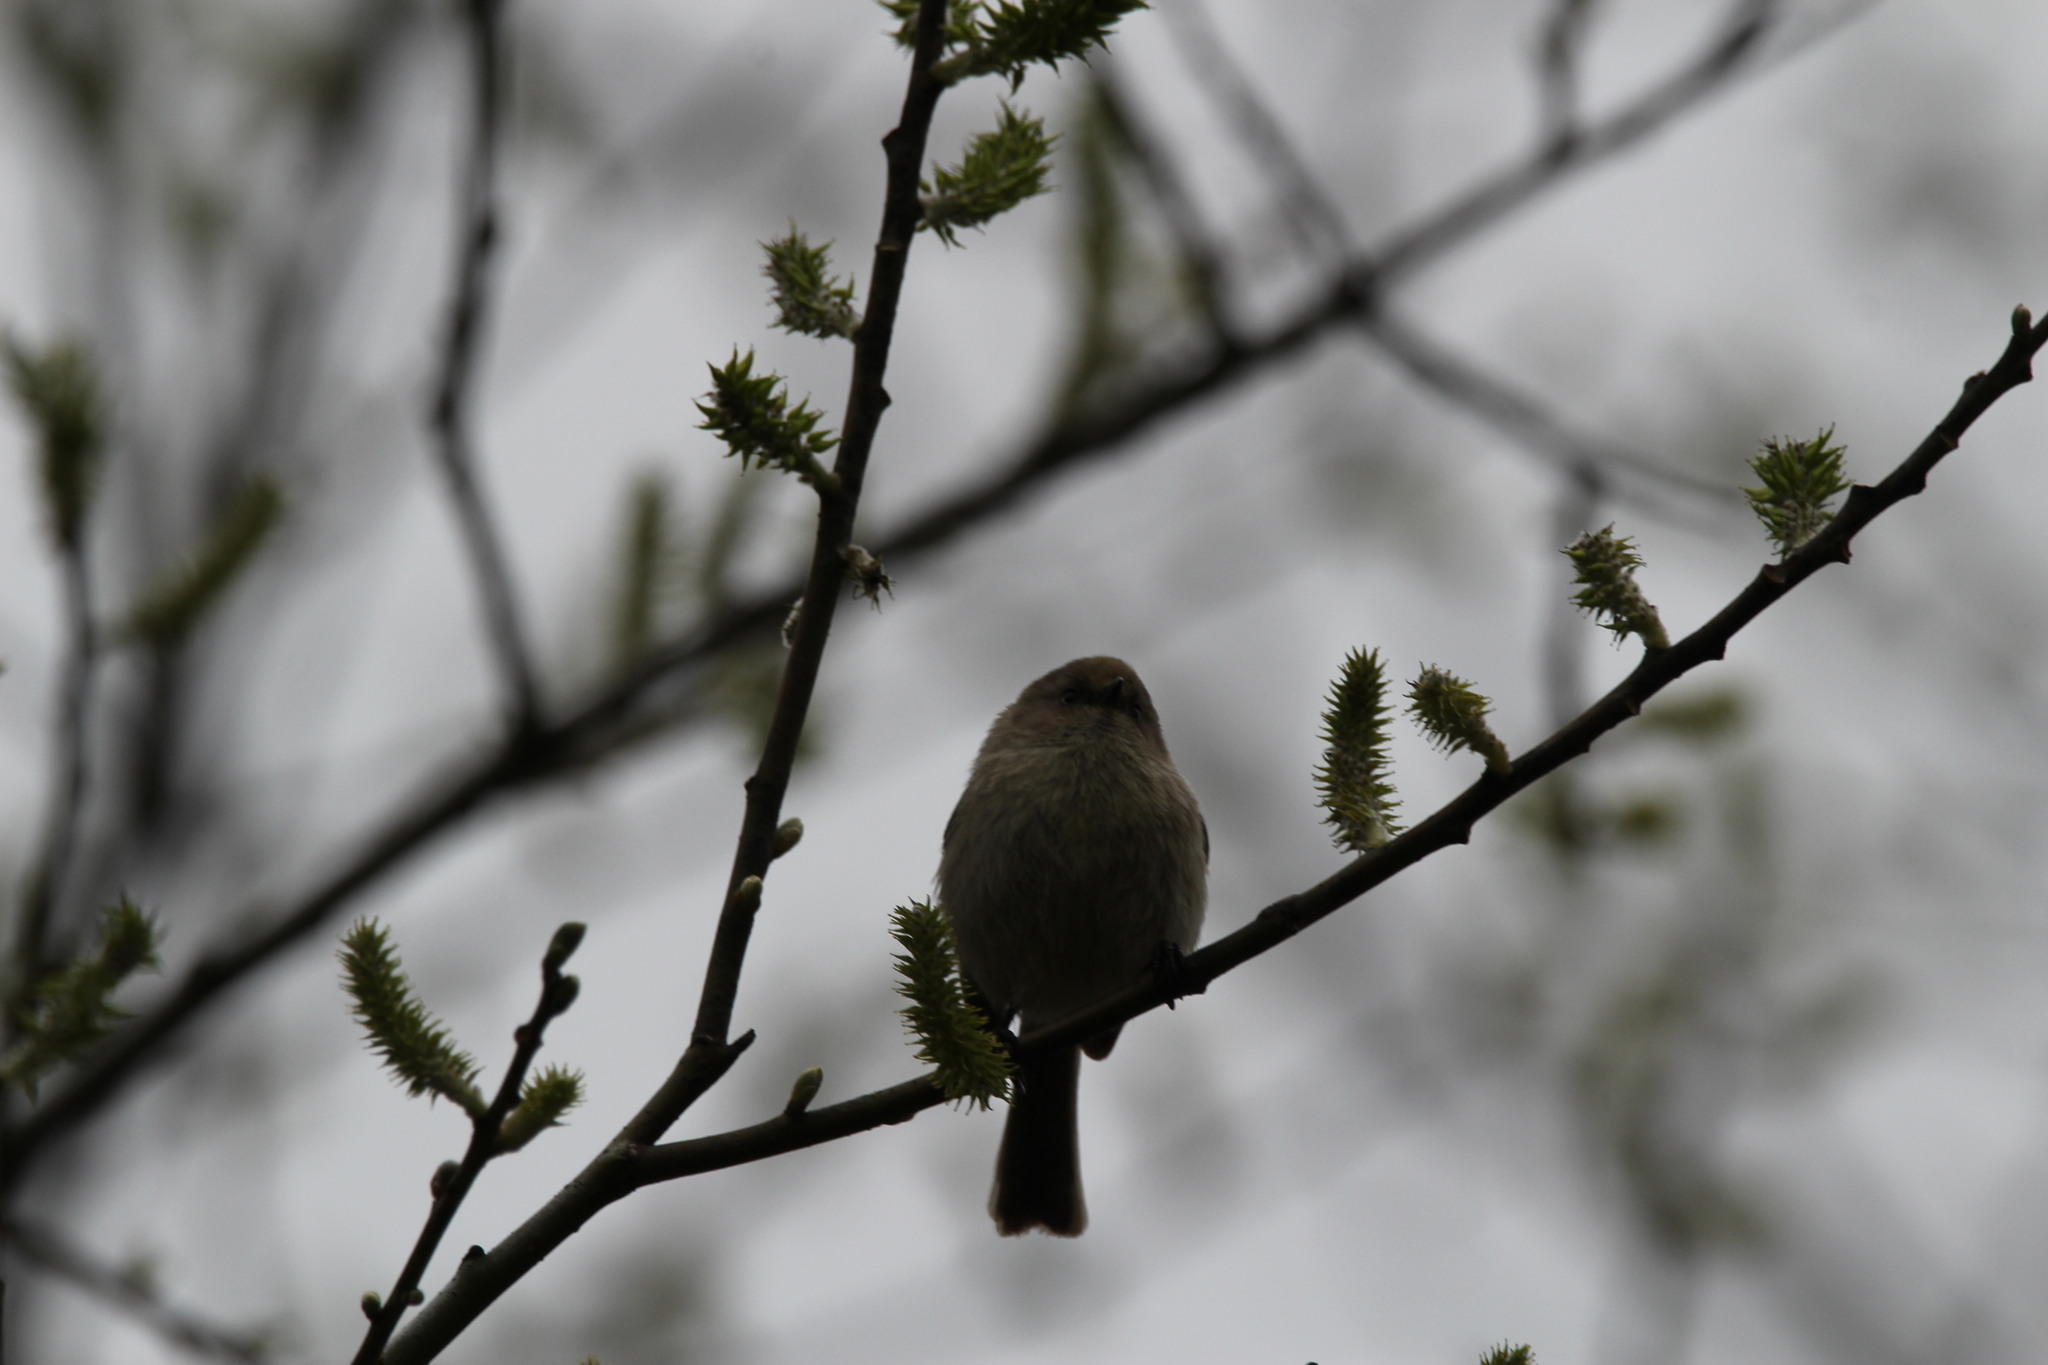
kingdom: Animalia
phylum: Chordata
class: Aves
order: Passeriformes
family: Aegithalidae
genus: Psaltriparus
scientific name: Psaltriparus minimus
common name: American bushtit
